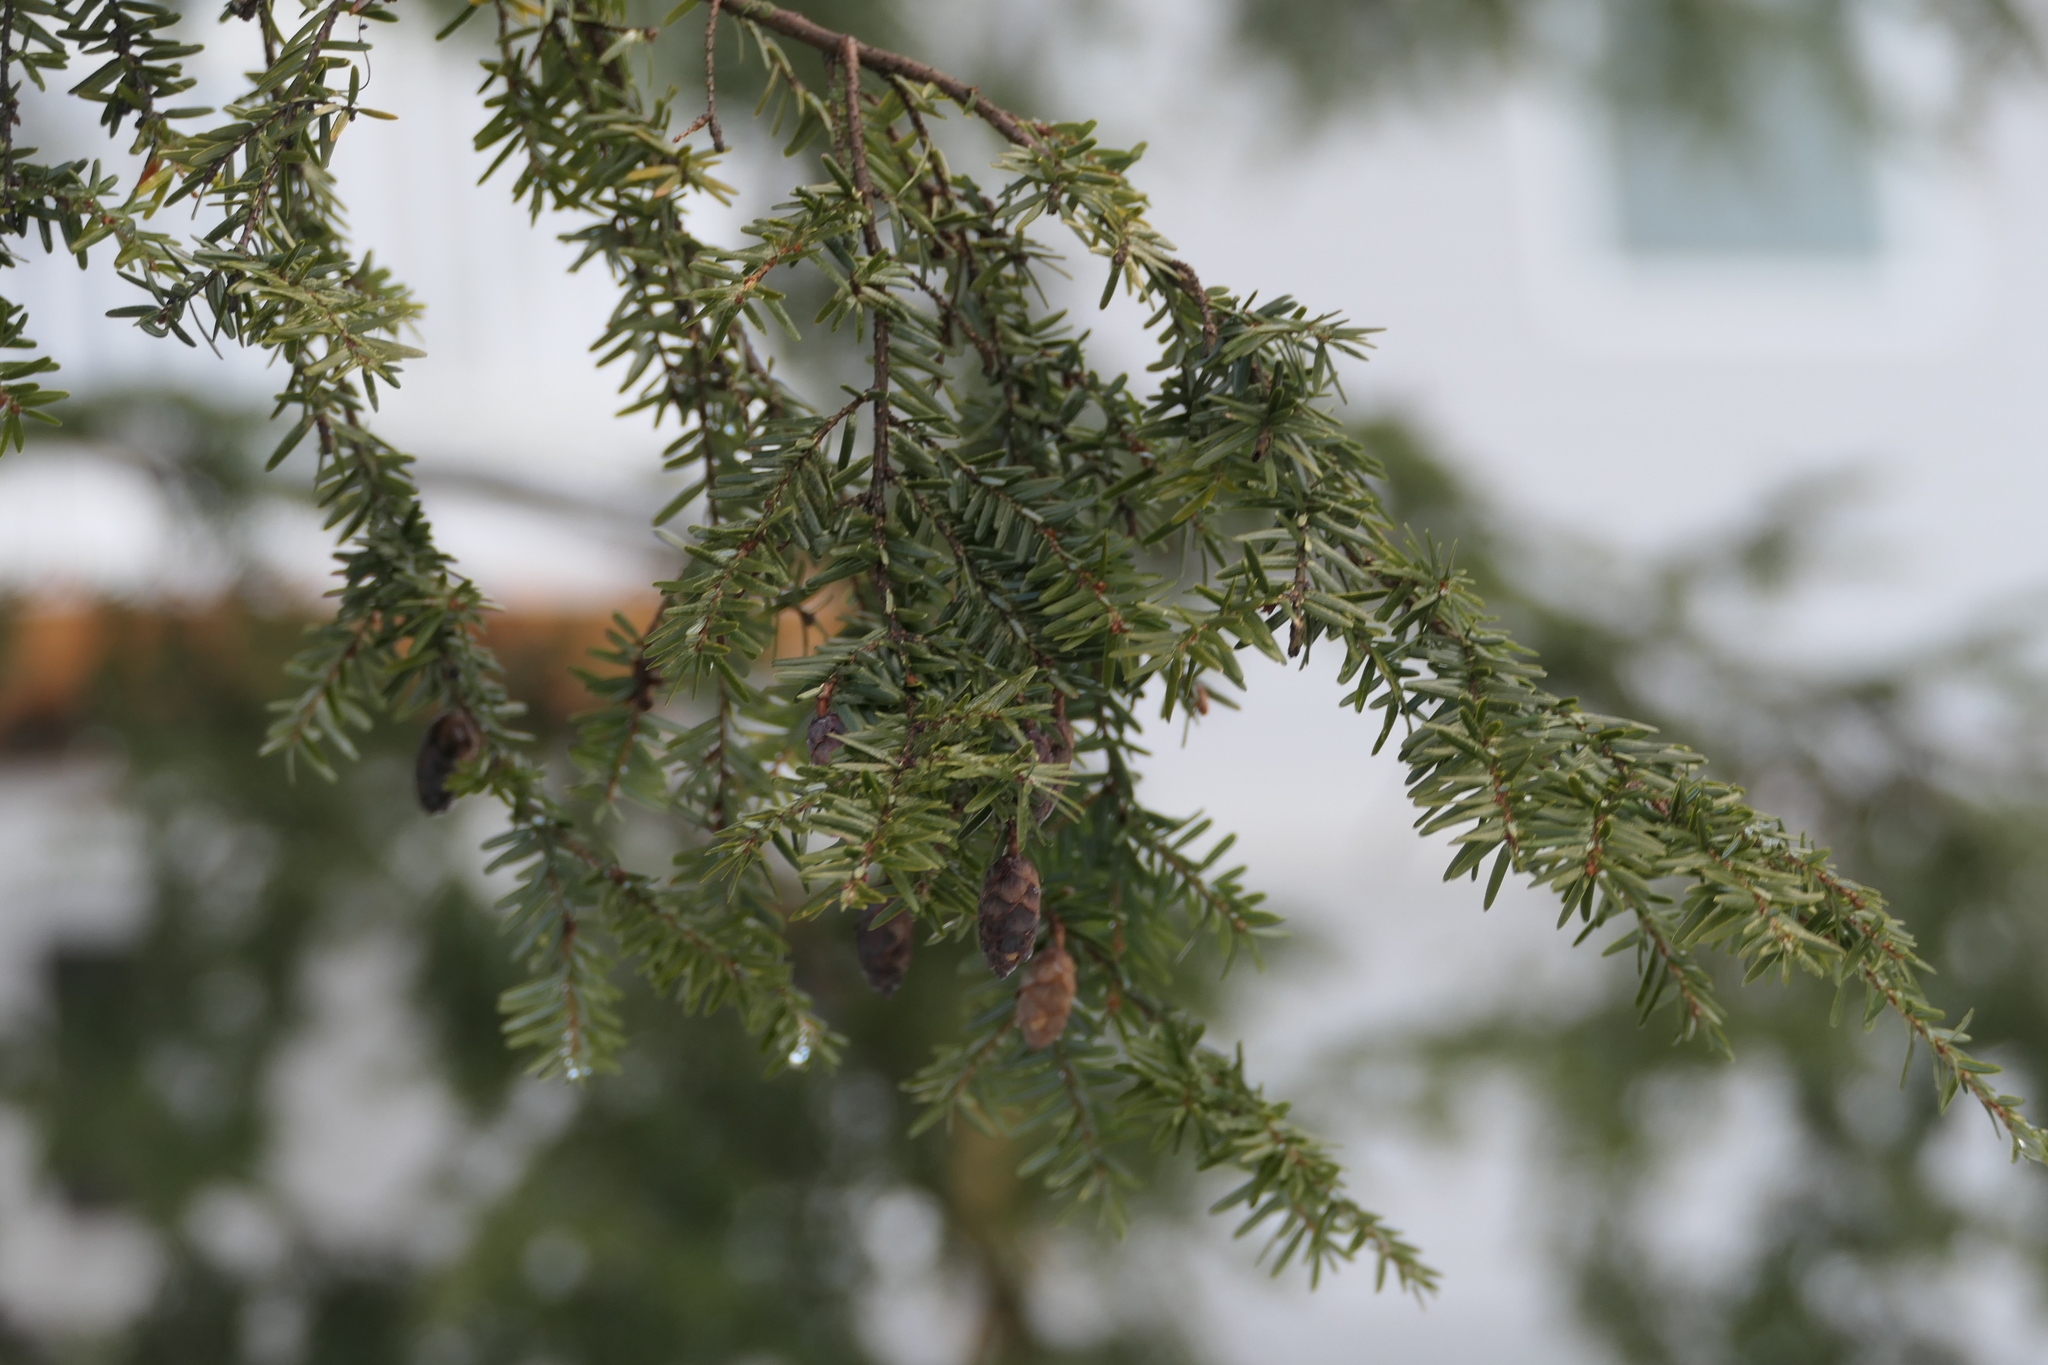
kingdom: Plantae
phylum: Tracheophyta
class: Pinopsida
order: Pinales
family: Pinaceae
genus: Tsuga
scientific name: Tsuga canadensis
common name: Eastern hemlock
